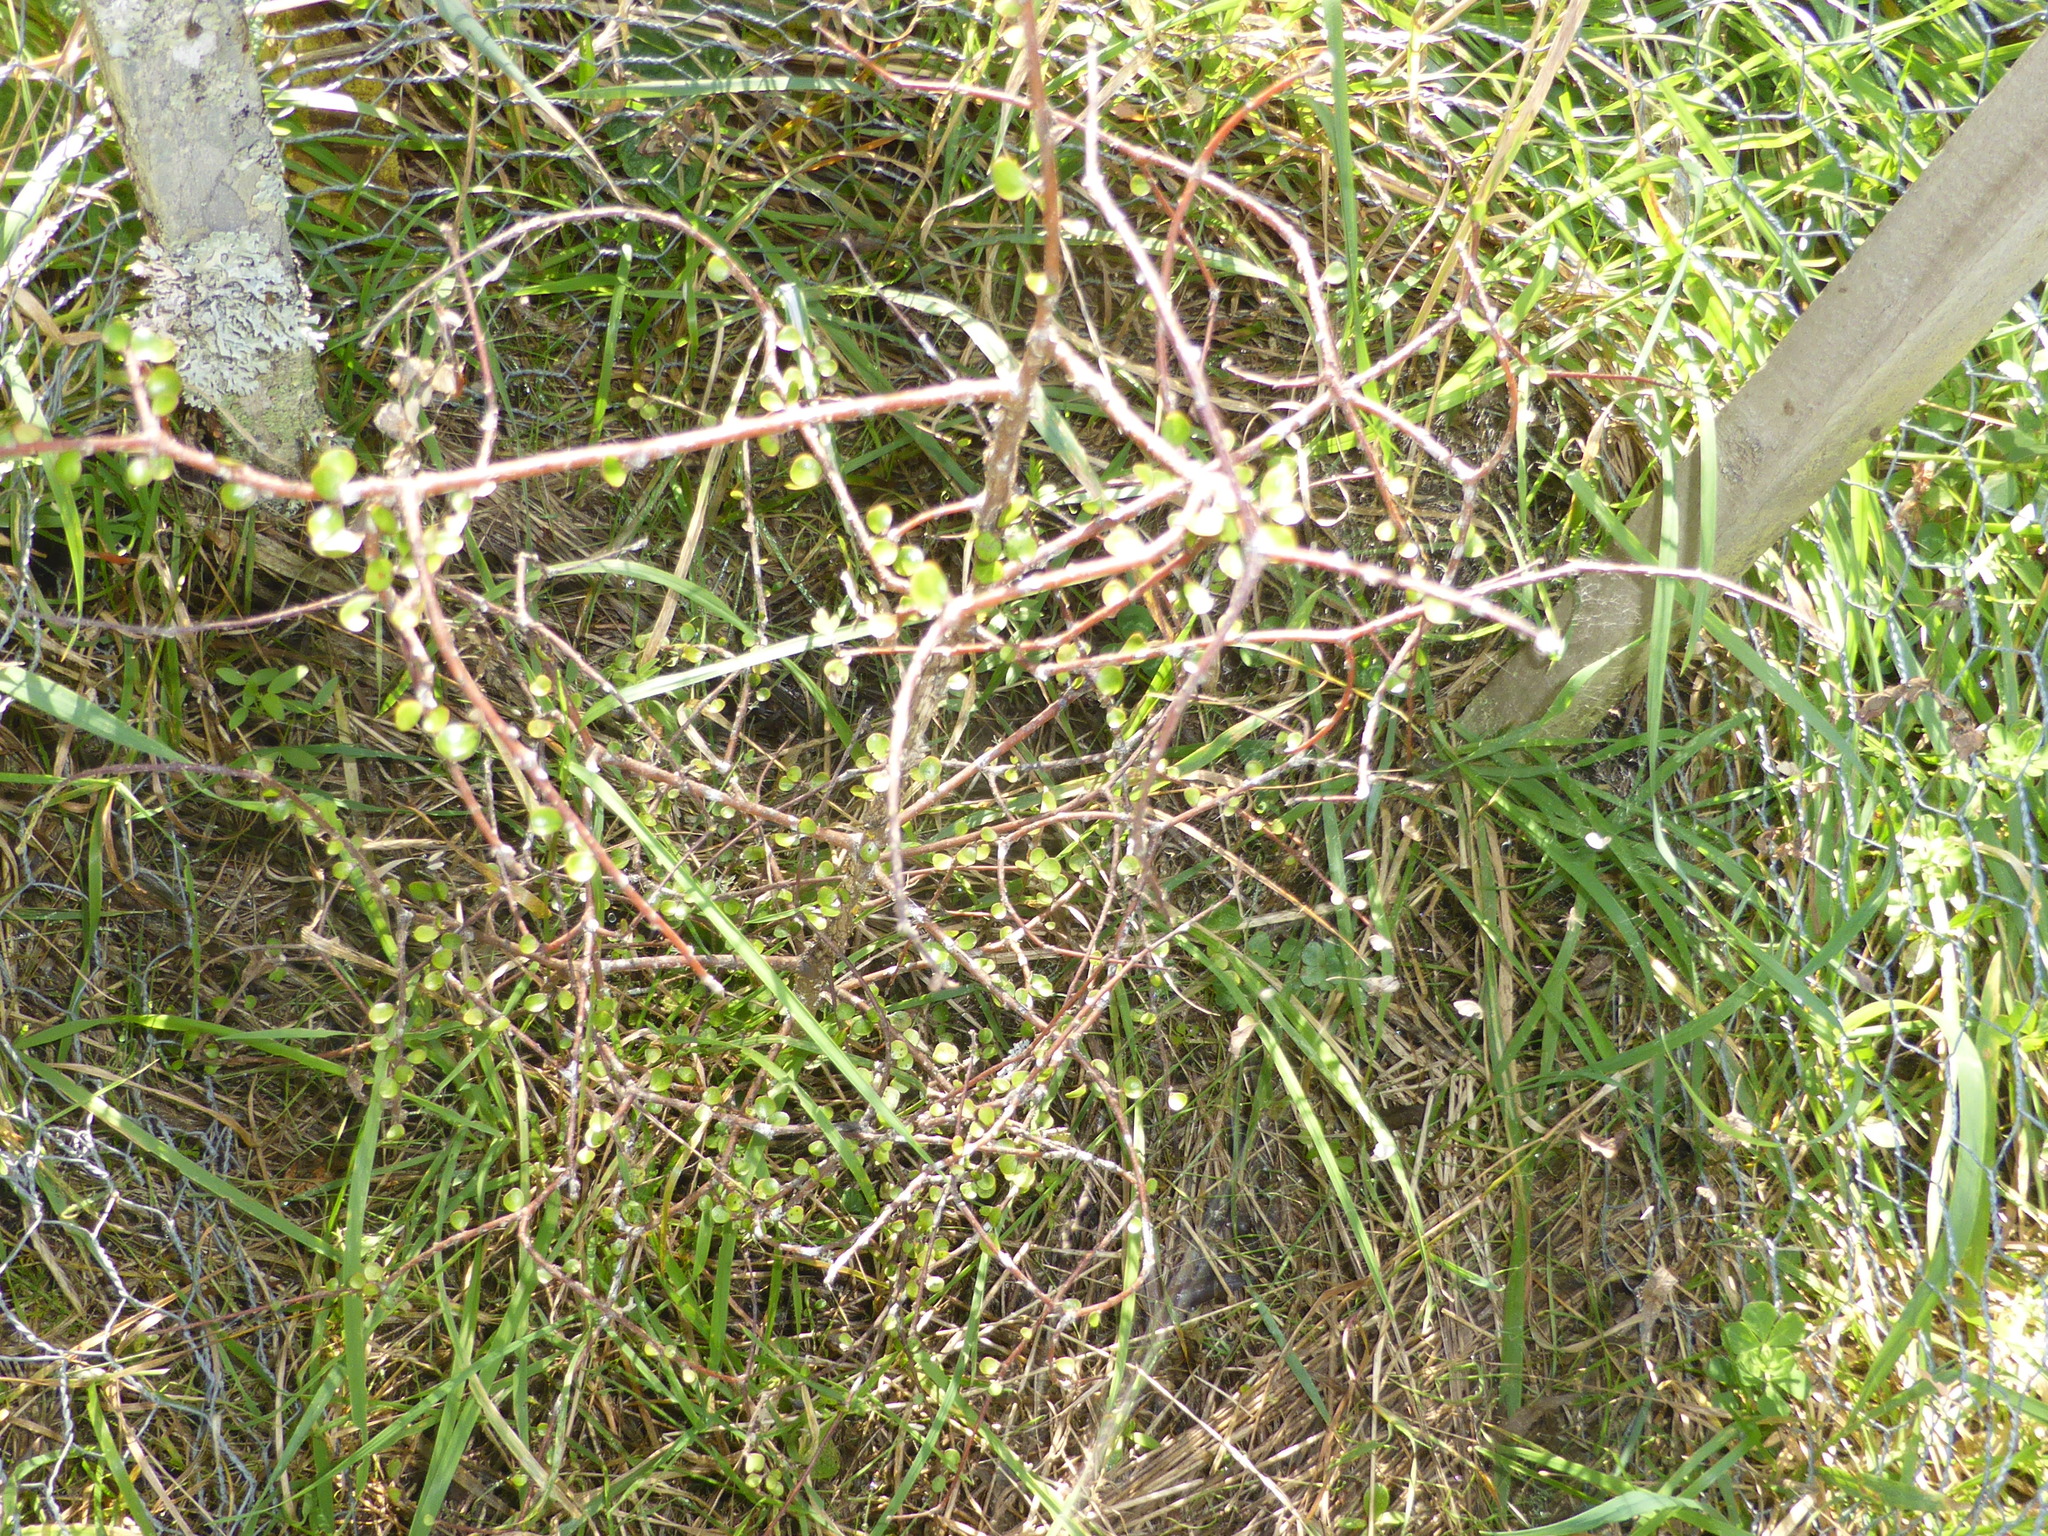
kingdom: Plantae
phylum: Tracheophyta
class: Magnoliopsida
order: Gentianales
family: Rubiaceae
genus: Coprosma
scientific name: Coprosma crassifolia
